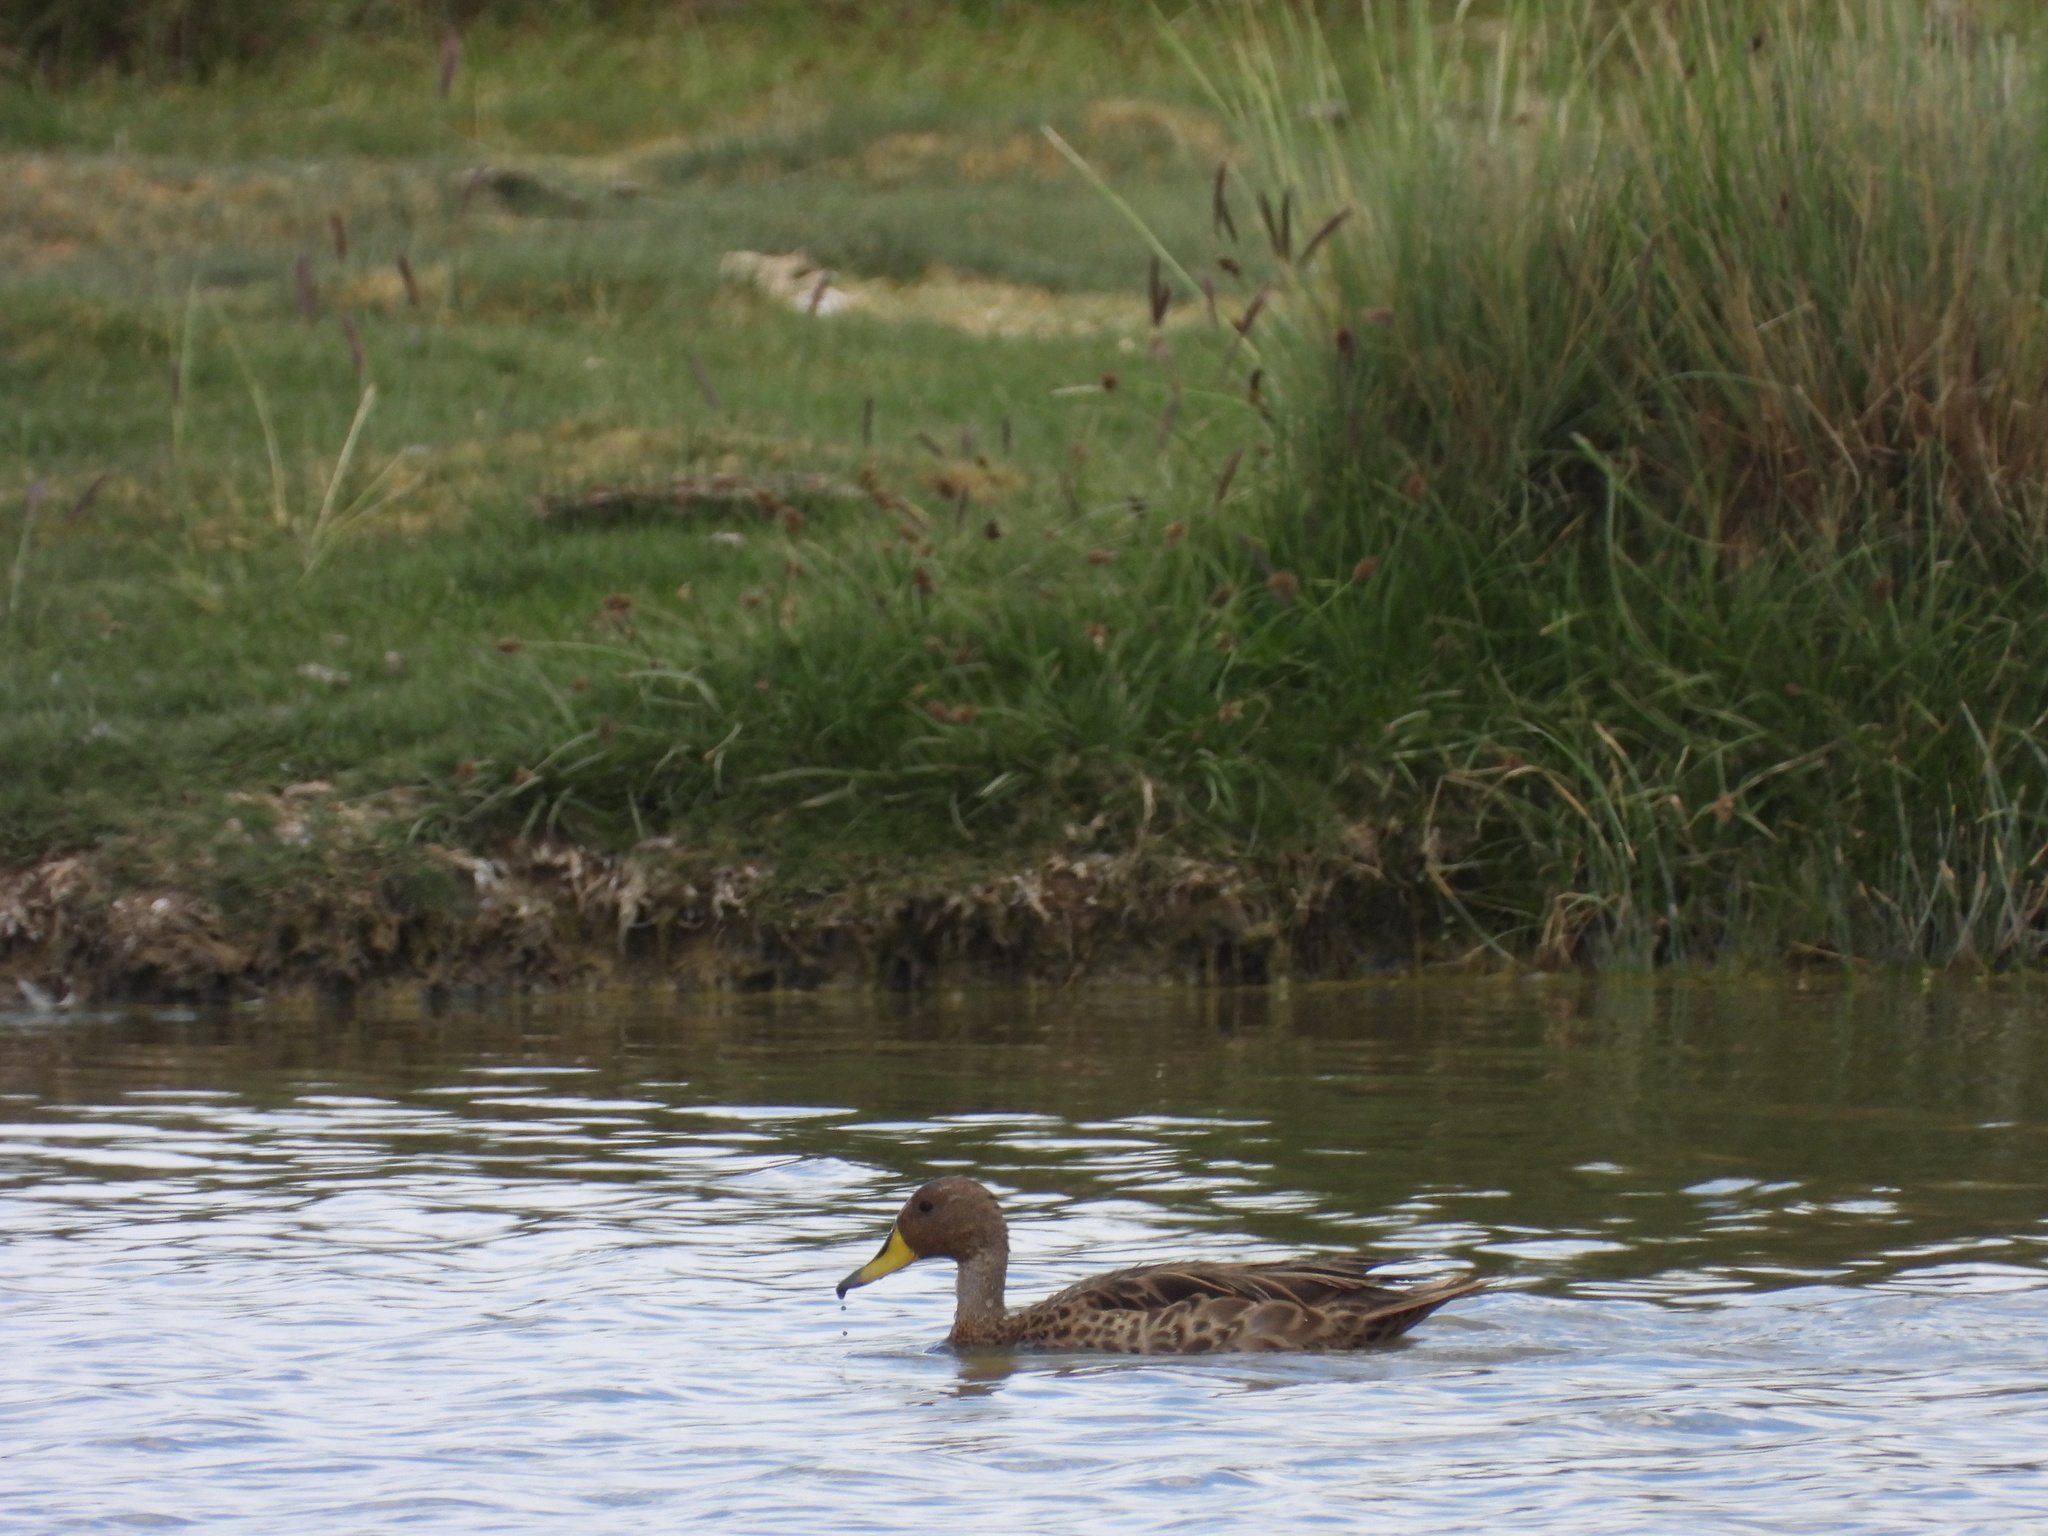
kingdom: Animalia
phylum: Chordata
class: Aves
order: Anseriformes
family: Anatidae
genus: Anas
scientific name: Anas georgica
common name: Yellow-billed pintail
